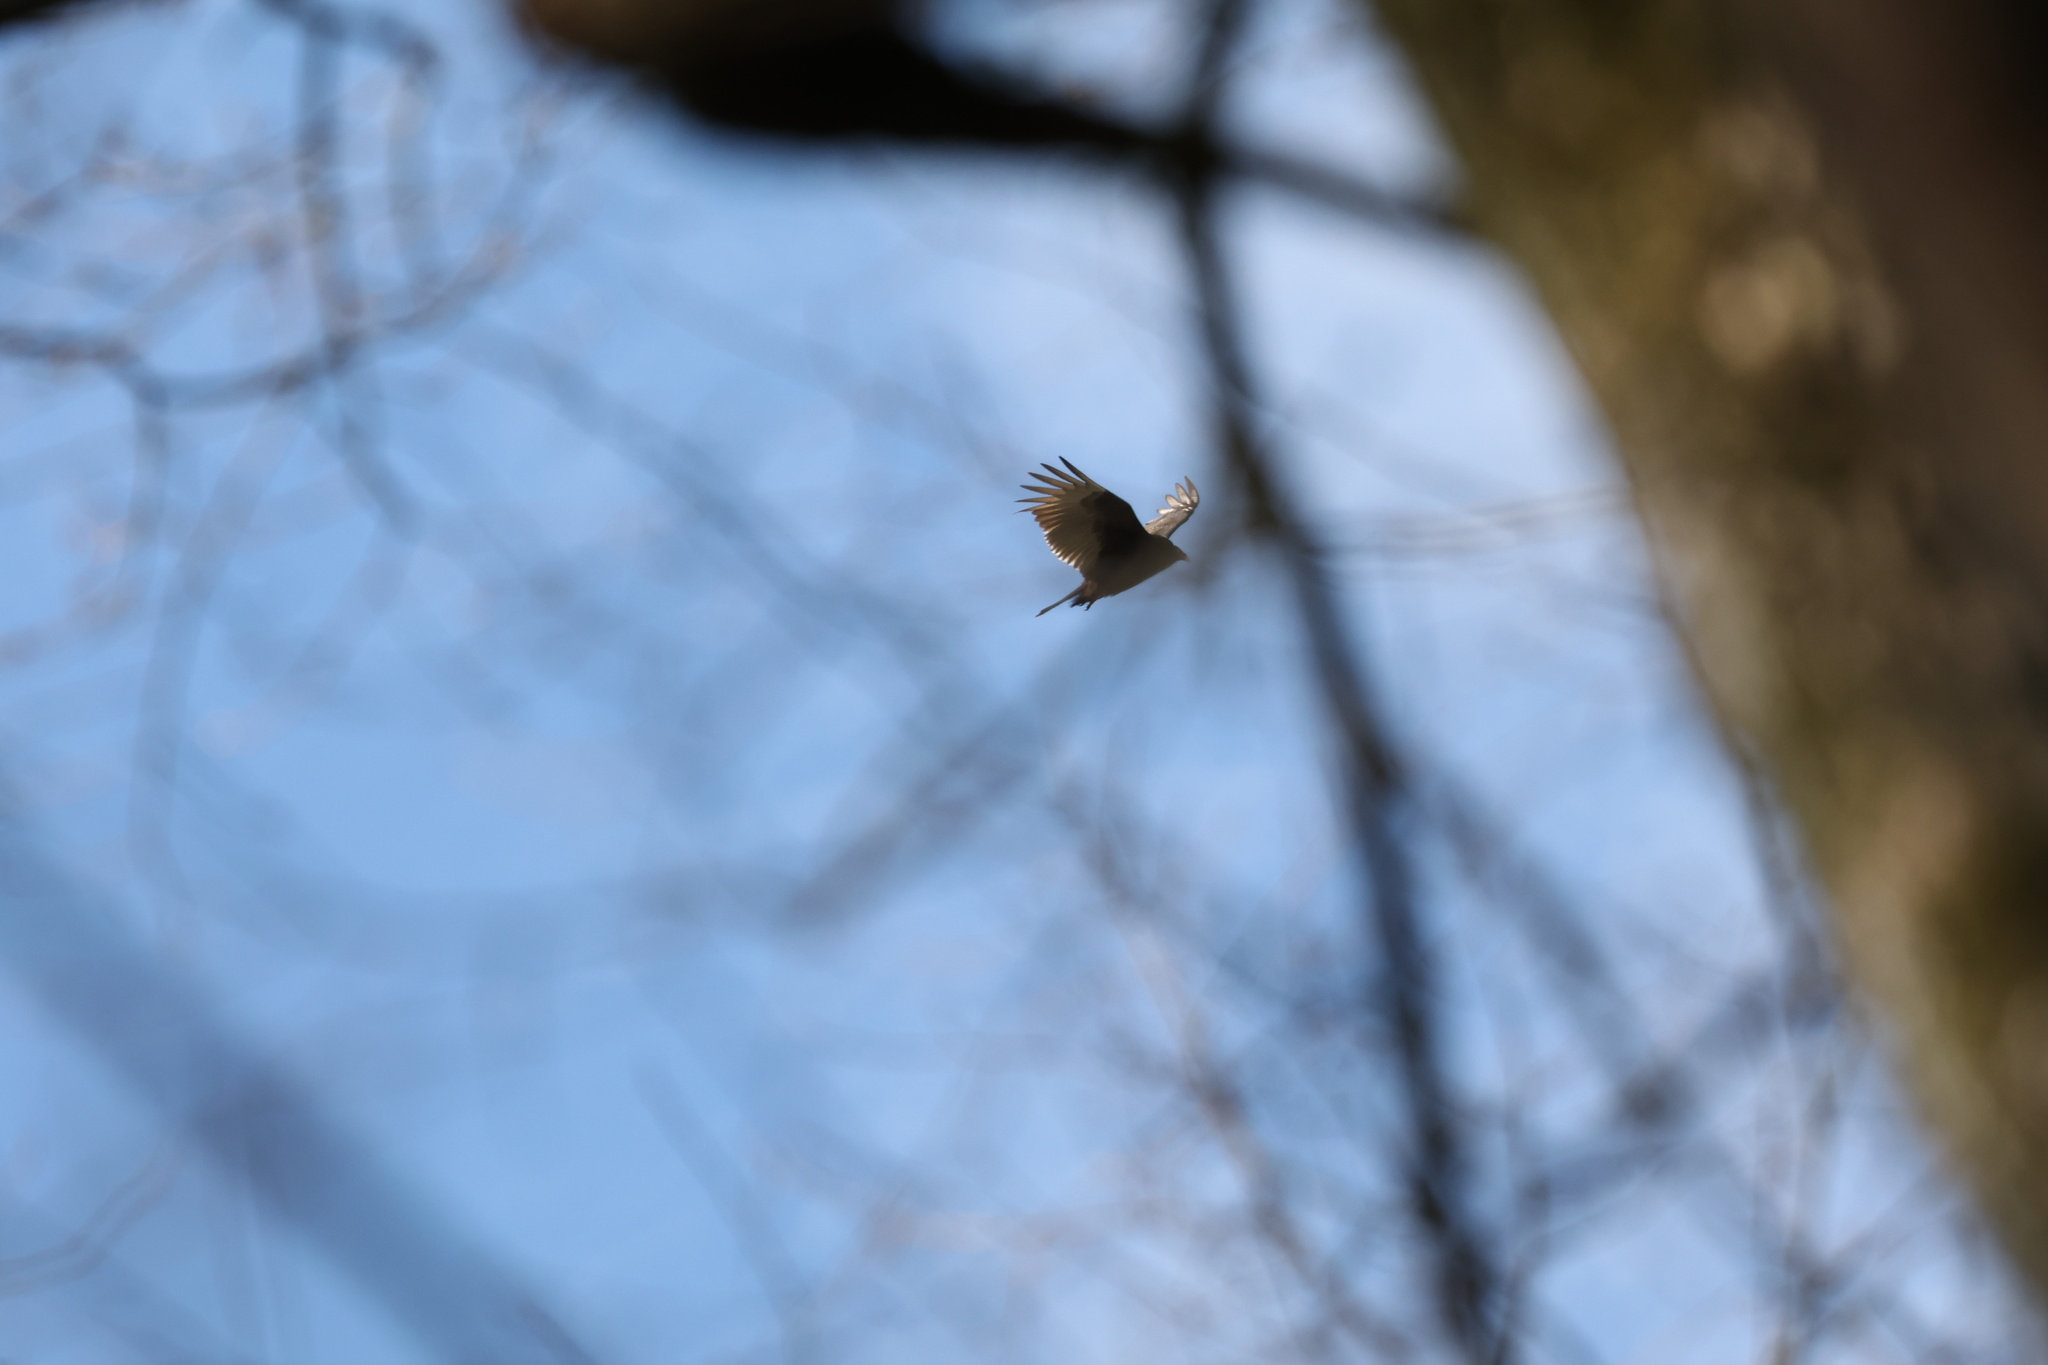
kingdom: Animalia
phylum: Chordata
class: Aves
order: Accipitriformes
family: Cathartidae
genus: Cathartes
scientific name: Cathartes aura
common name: Turkey vulture
